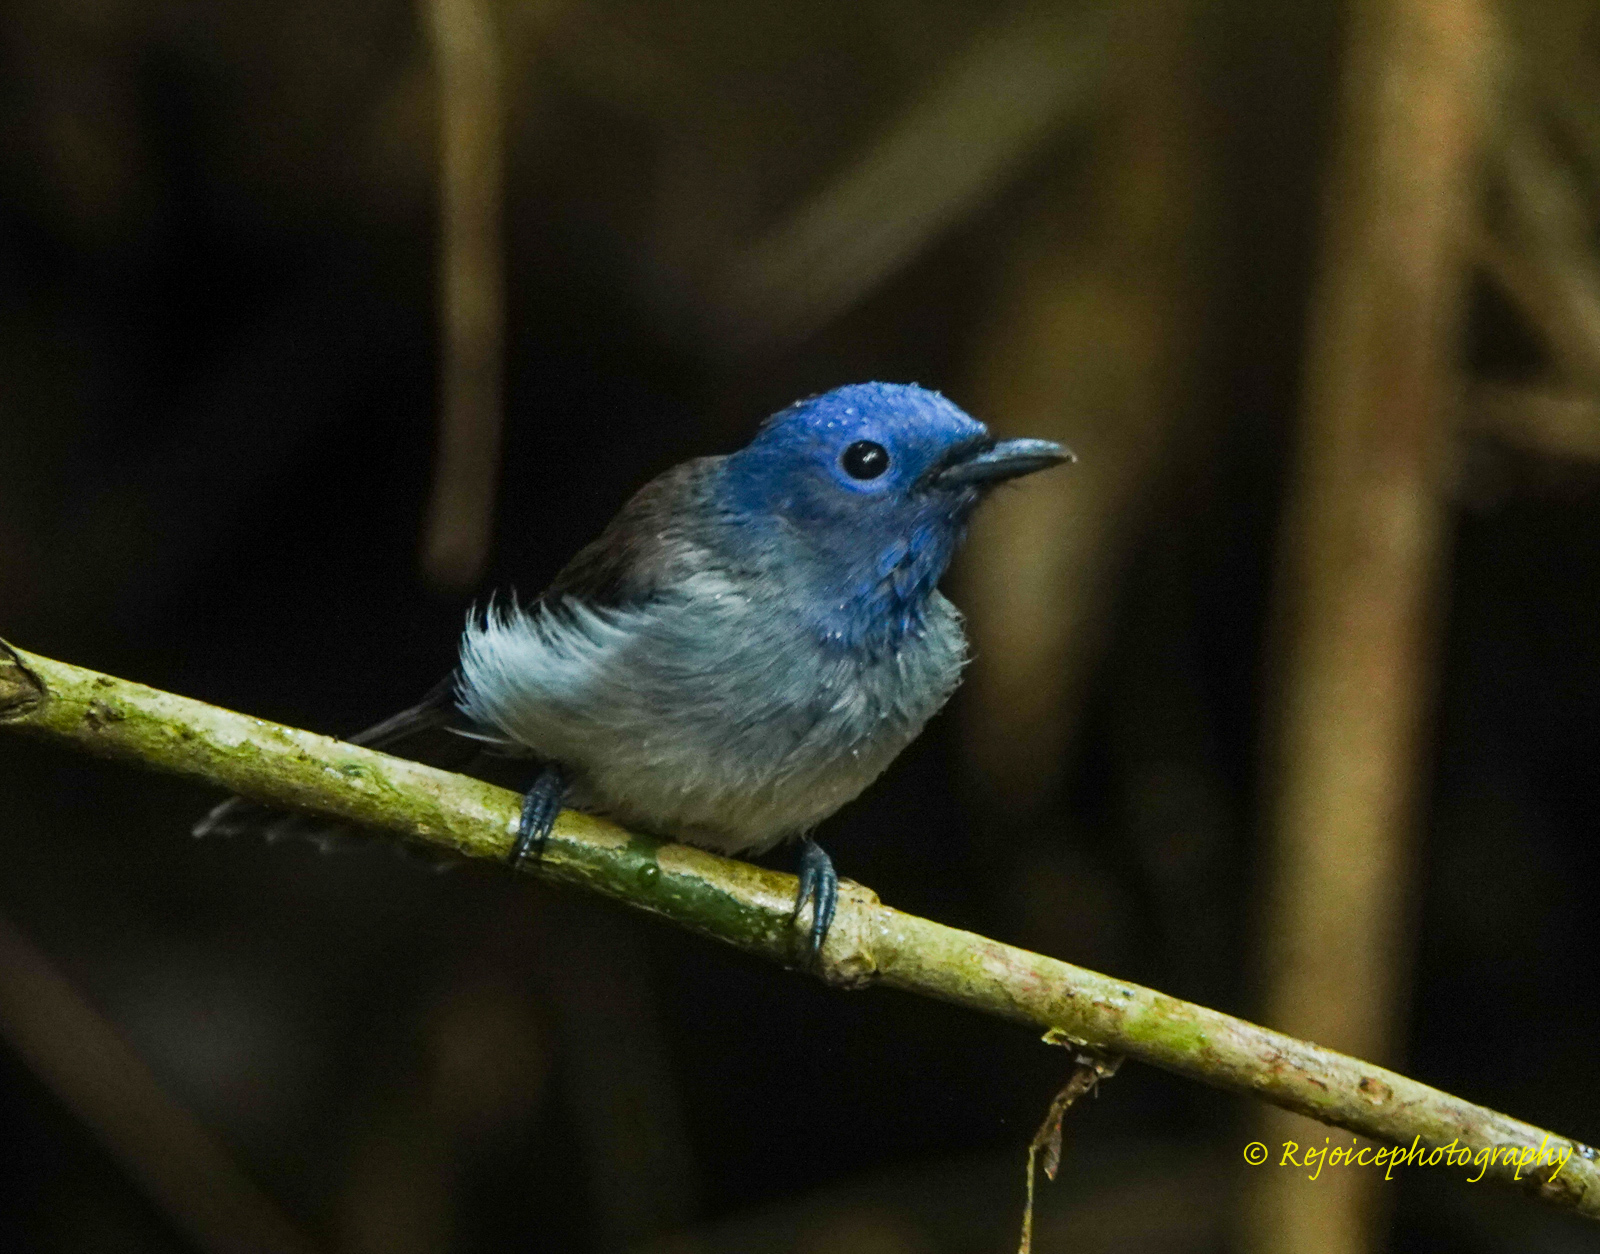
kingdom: Animalia
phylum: Chordata
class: Aves
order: Passeriformes
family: Monarchidae
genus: Hypothymis
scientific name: Hypothymis azurea
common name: Black-naped monarch
